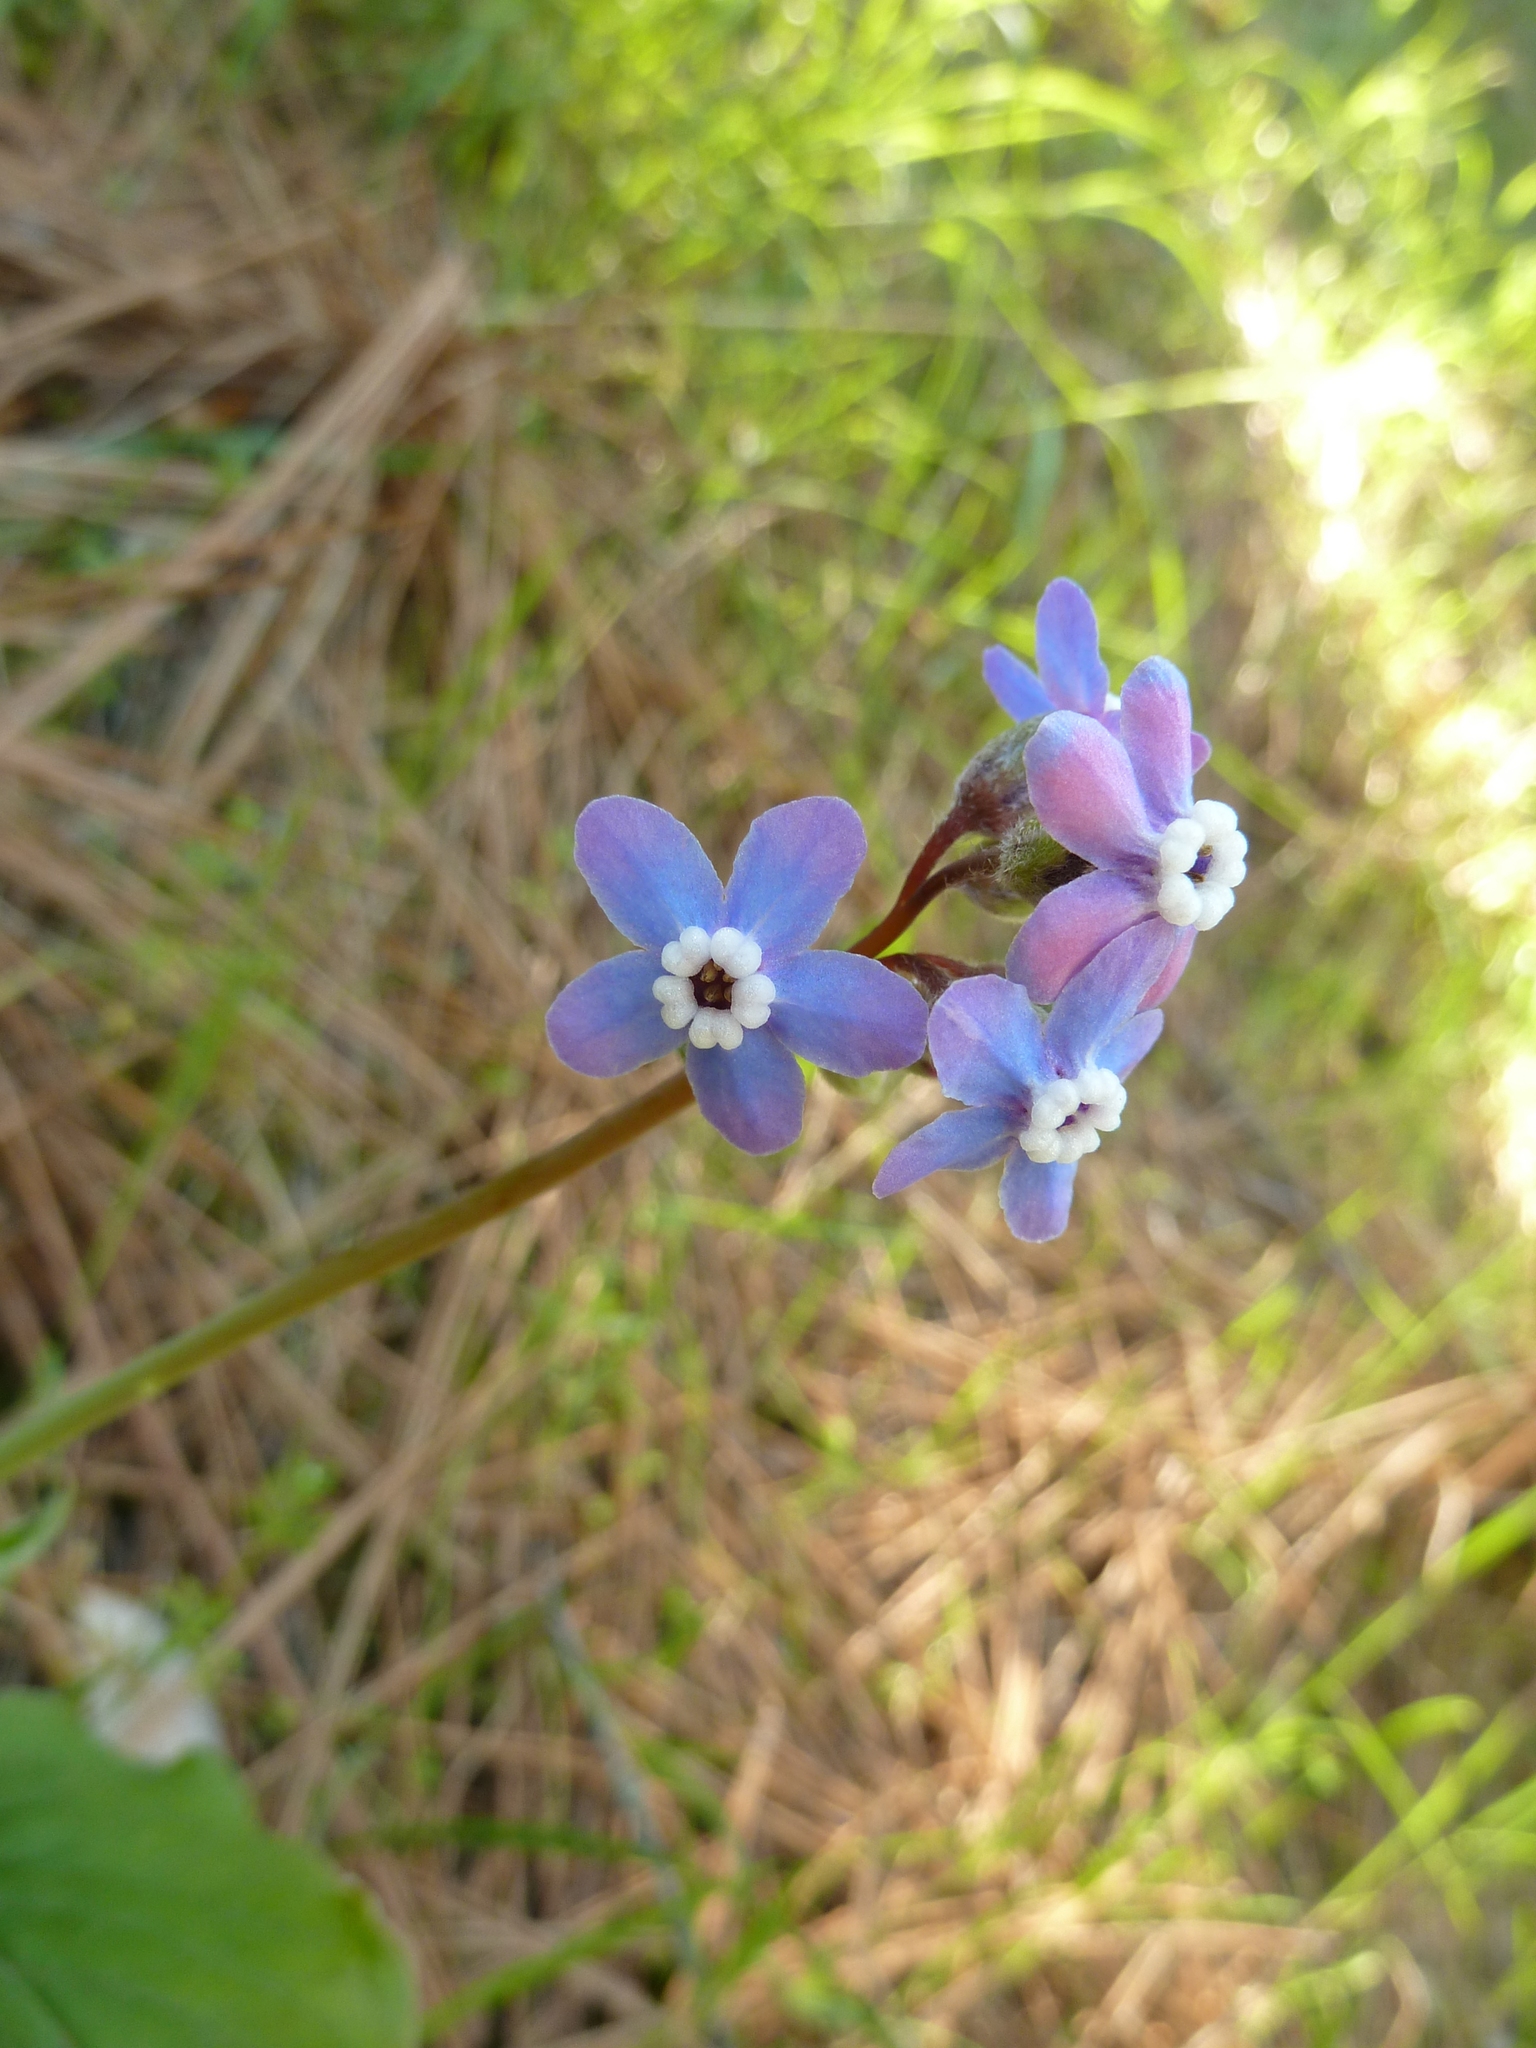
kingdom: Plantae
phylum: Tracheophyta
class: Magnoliopsida
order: Boraginales
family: Boraginaceae
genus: Adelinia
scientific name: Adelinia grande
